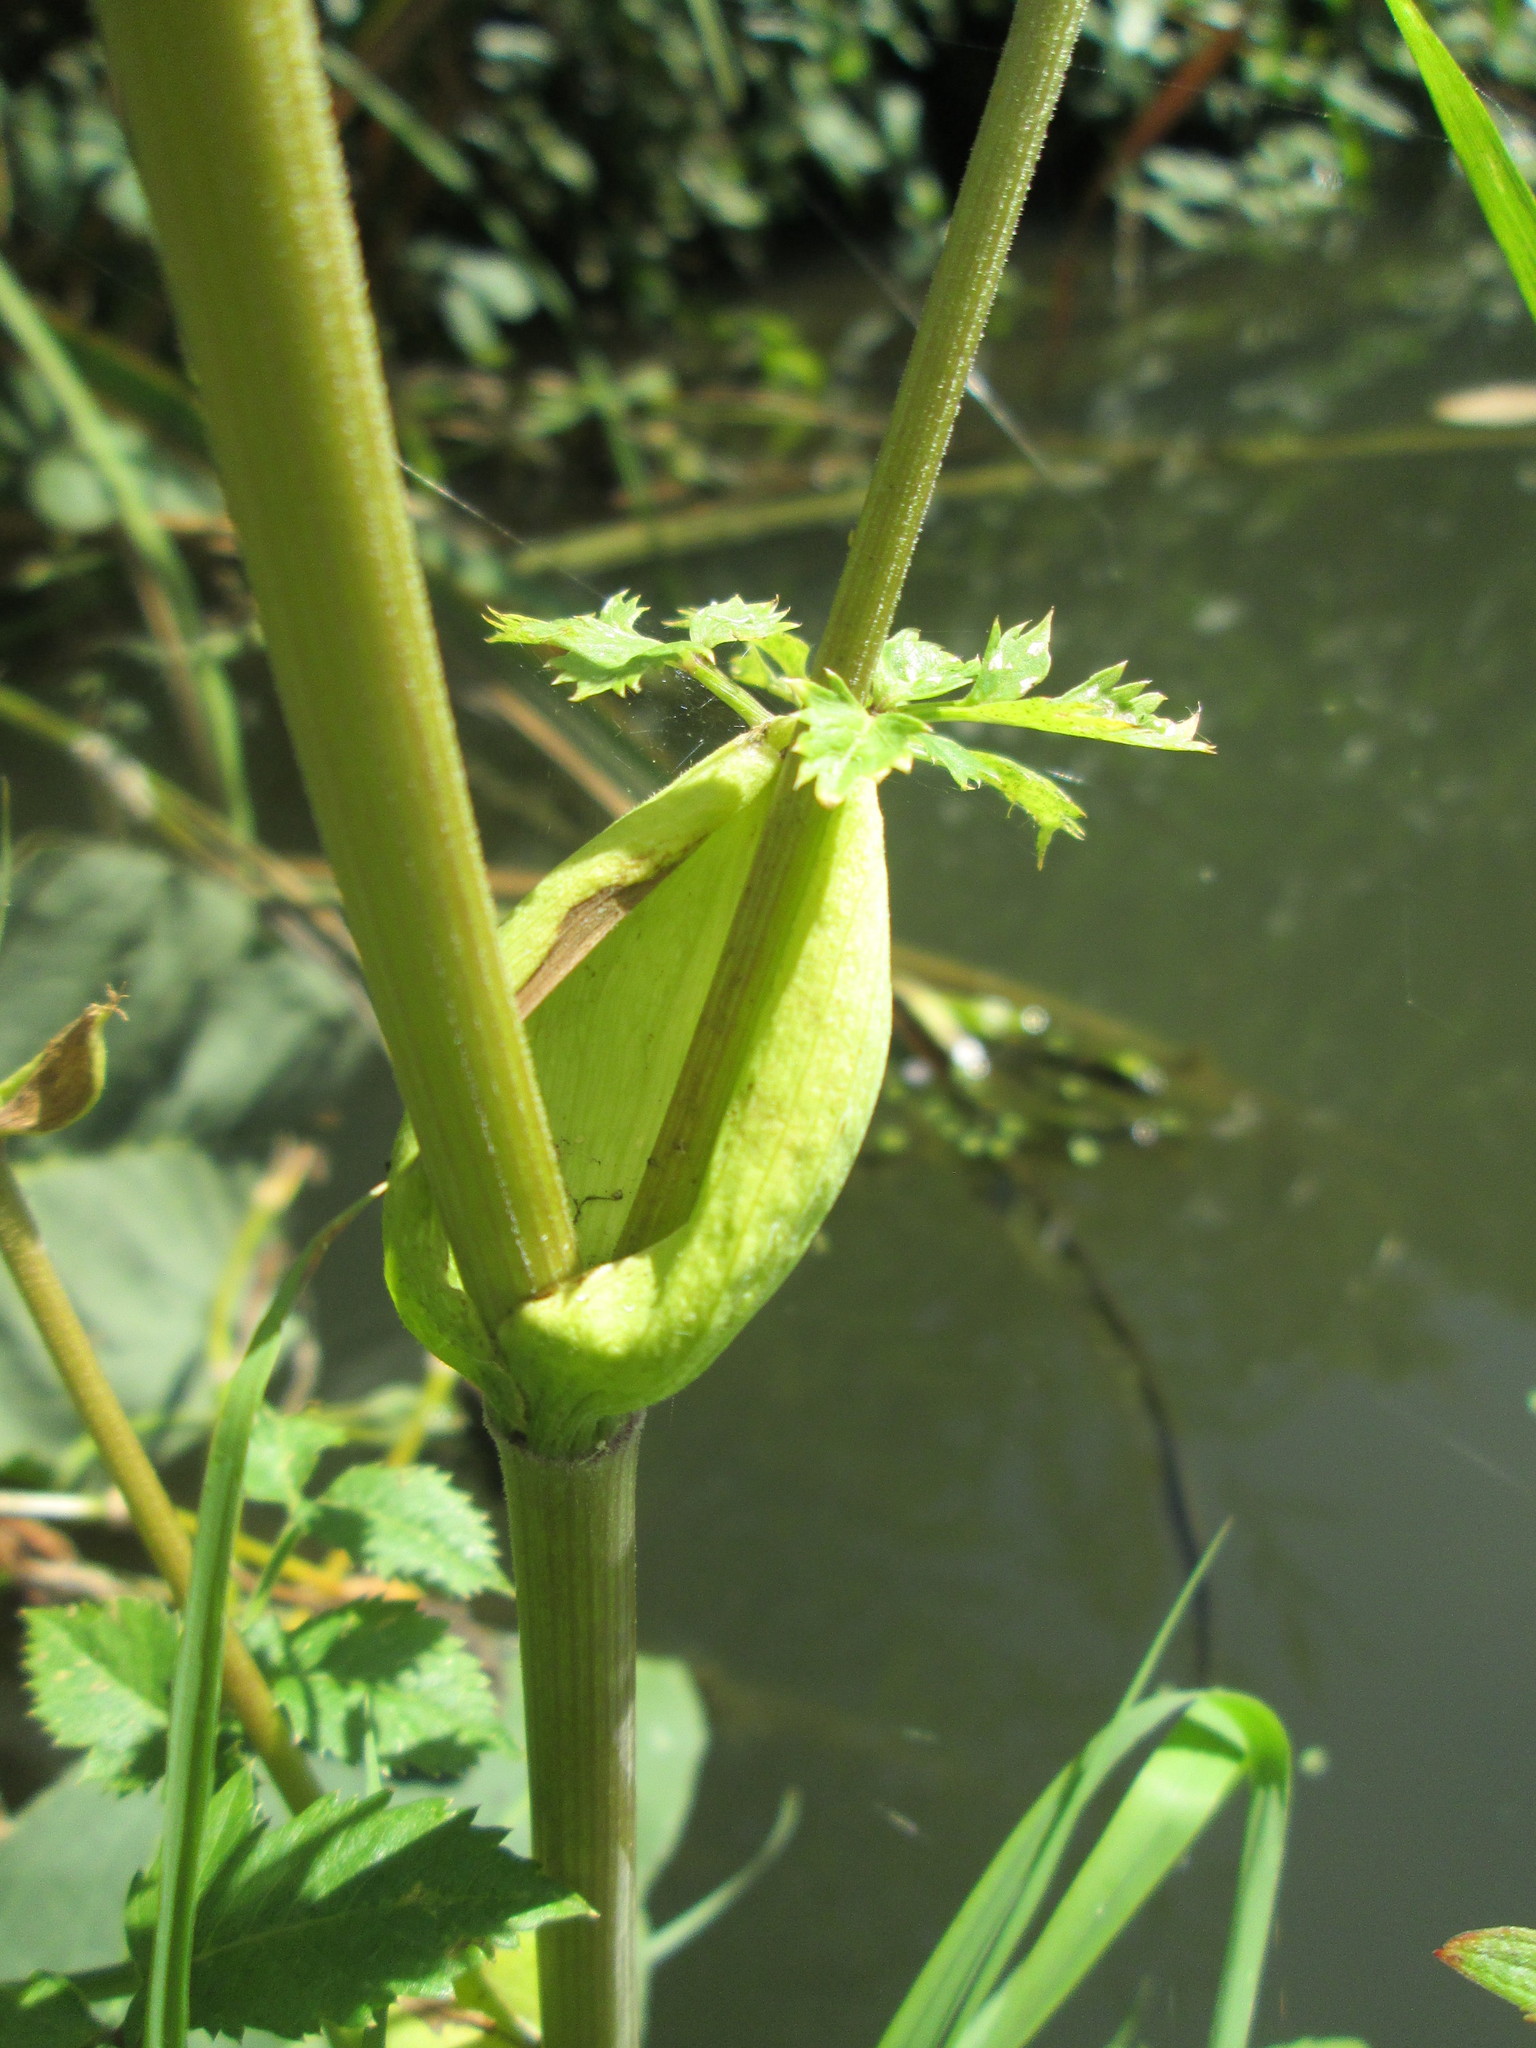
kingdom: Plantae
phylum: Tracheophyta
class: Magnoliopsida
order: Apiales
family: Apiaceae
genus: Angelica
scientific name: Angelica sylvestris
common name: Wild angelica
